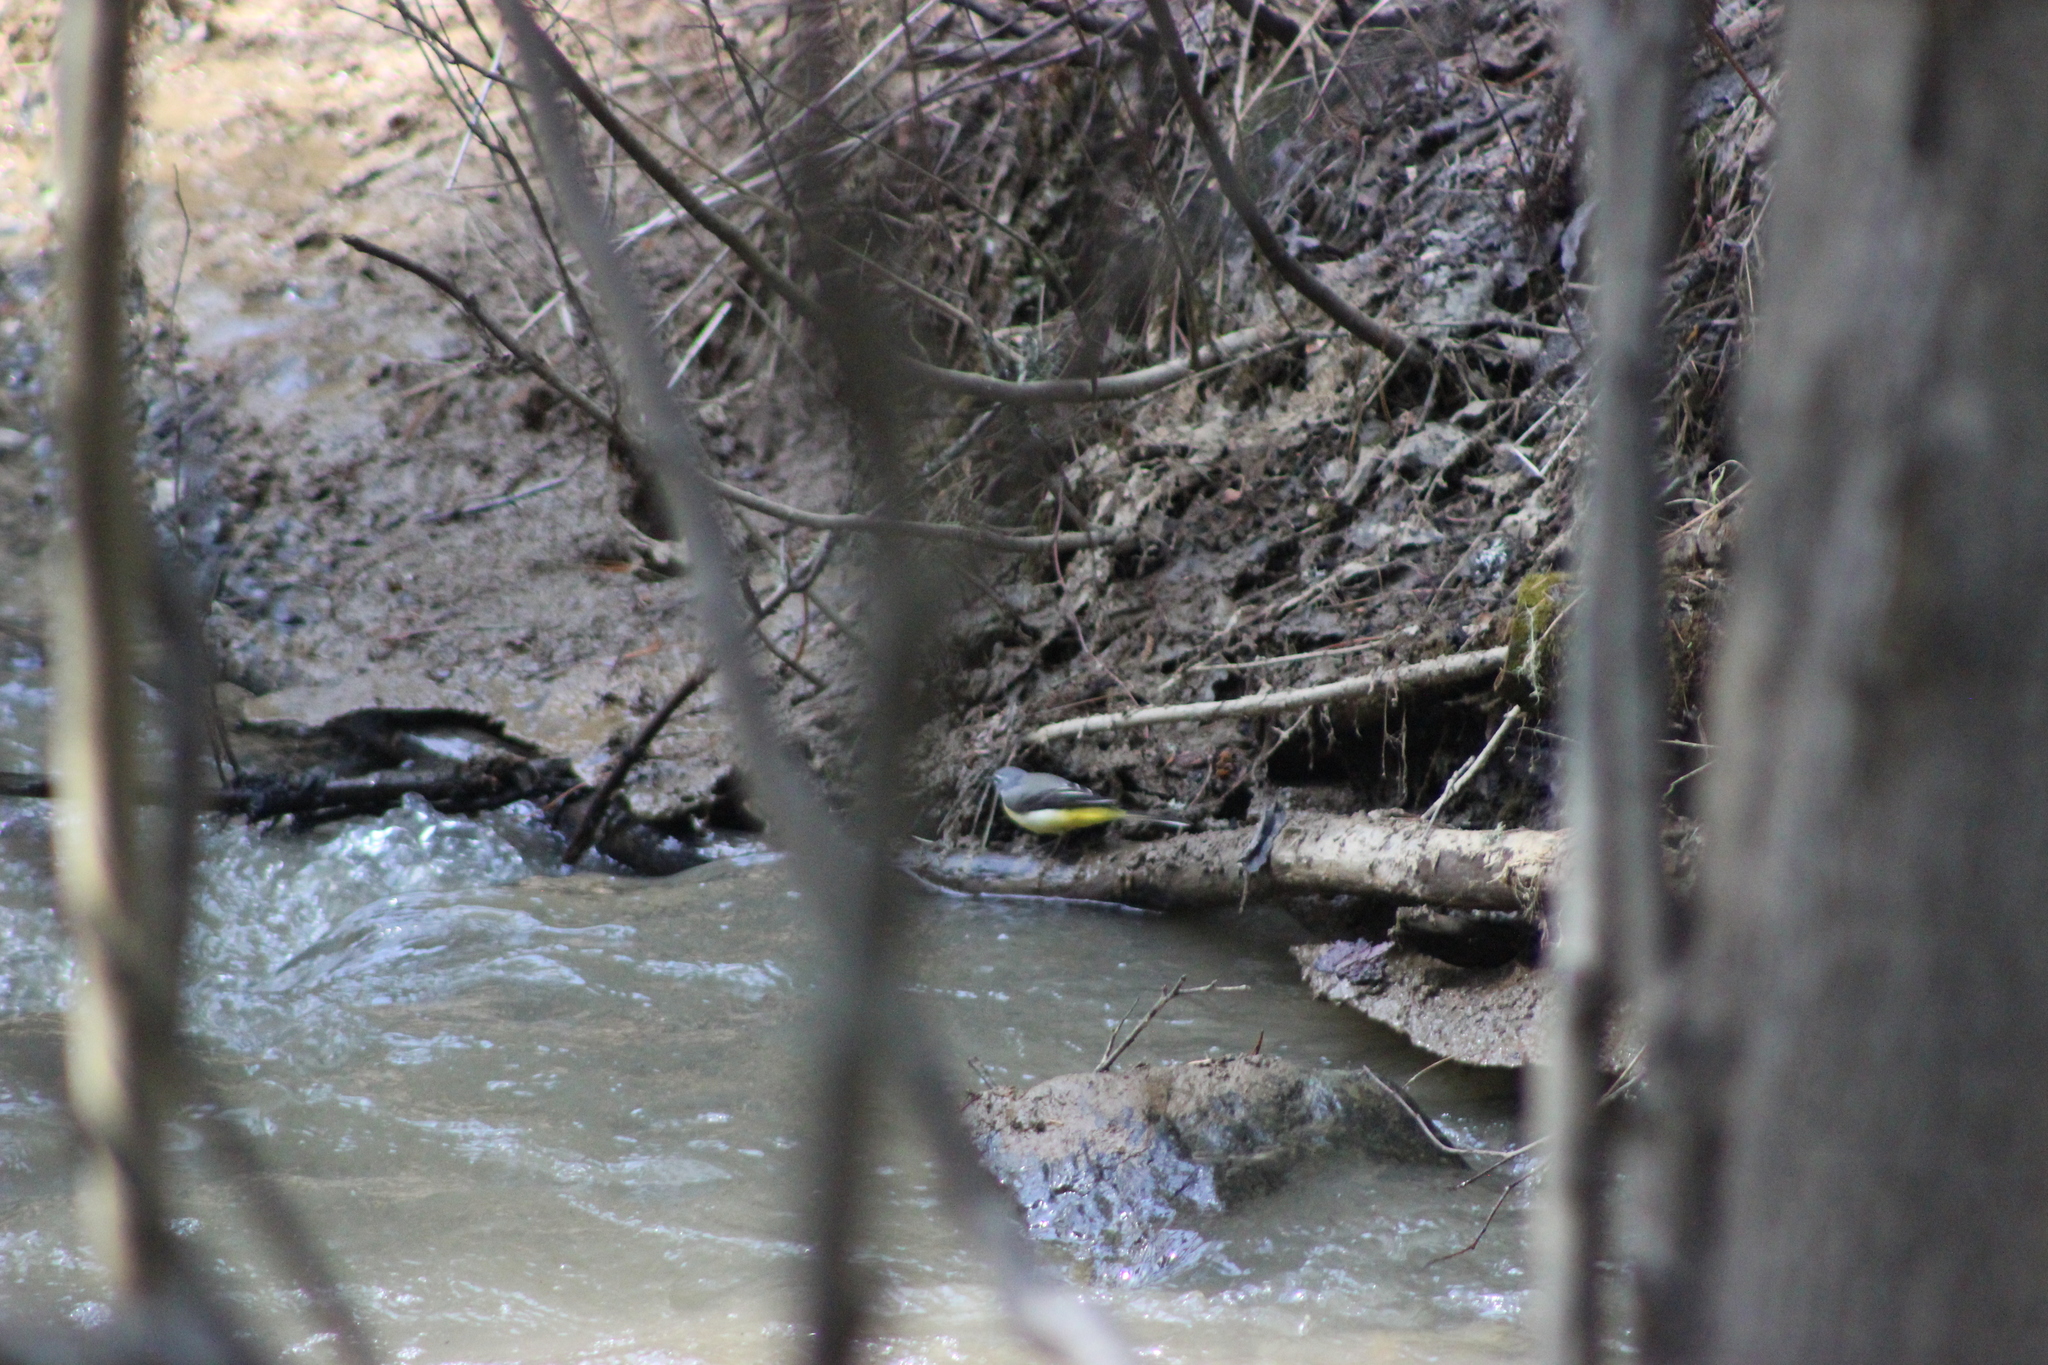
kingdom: Animalia
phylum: Chordata
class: Aves
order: Passeriformes
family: Motacillidae
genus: Motacilla
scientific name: Motacilla cinerea
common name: Grey wagtail
